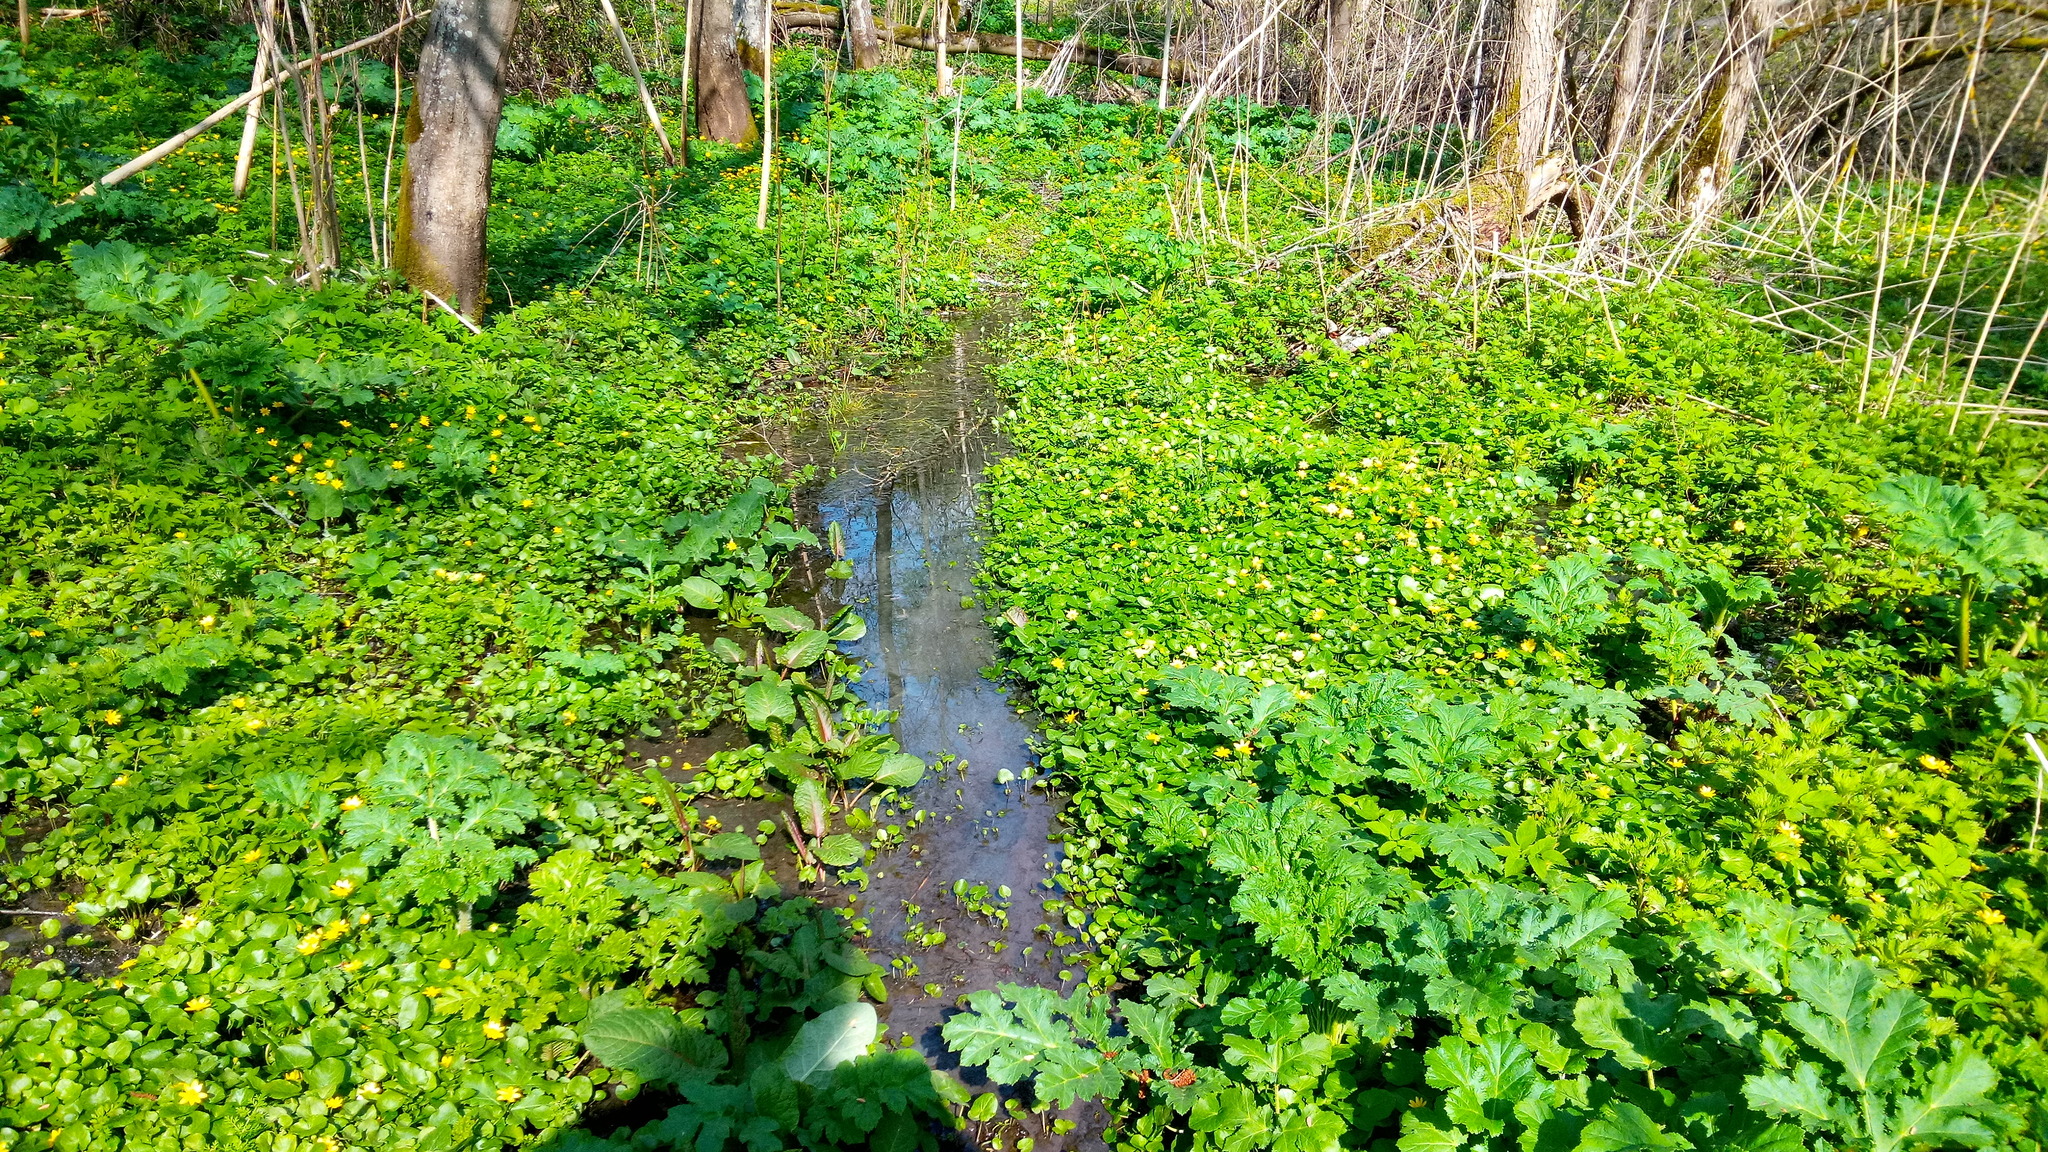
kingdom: Plantae
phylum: Tracheophyta
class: Magnoliopsida
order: Ranunculales
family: Ranunculaceae
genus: Ficaria
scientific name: Ficaria verna
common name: Lesser celandine
